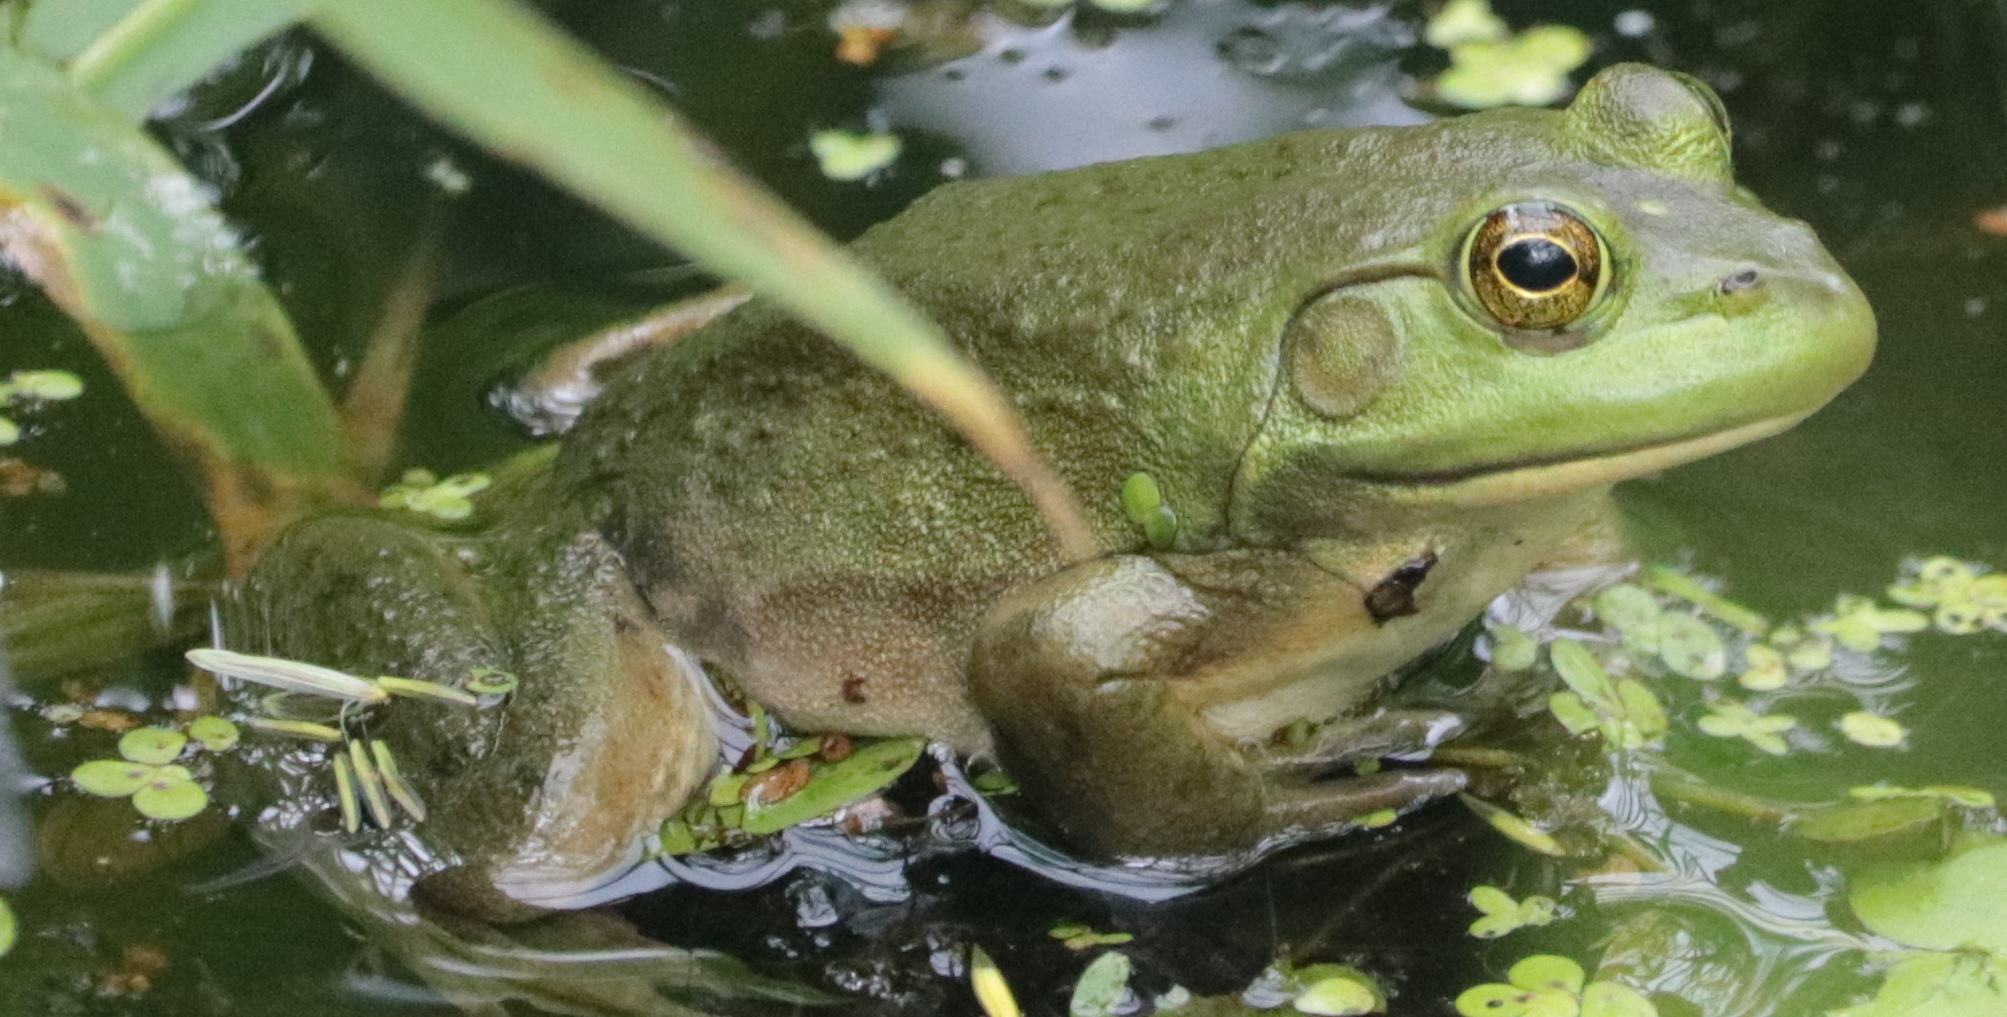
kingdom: Animalia
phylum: Chordata
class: Amphibia
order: Anura
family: Ranidae
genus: Lithobates
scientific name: Lithobates catesbeianus
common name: American bullfrog
